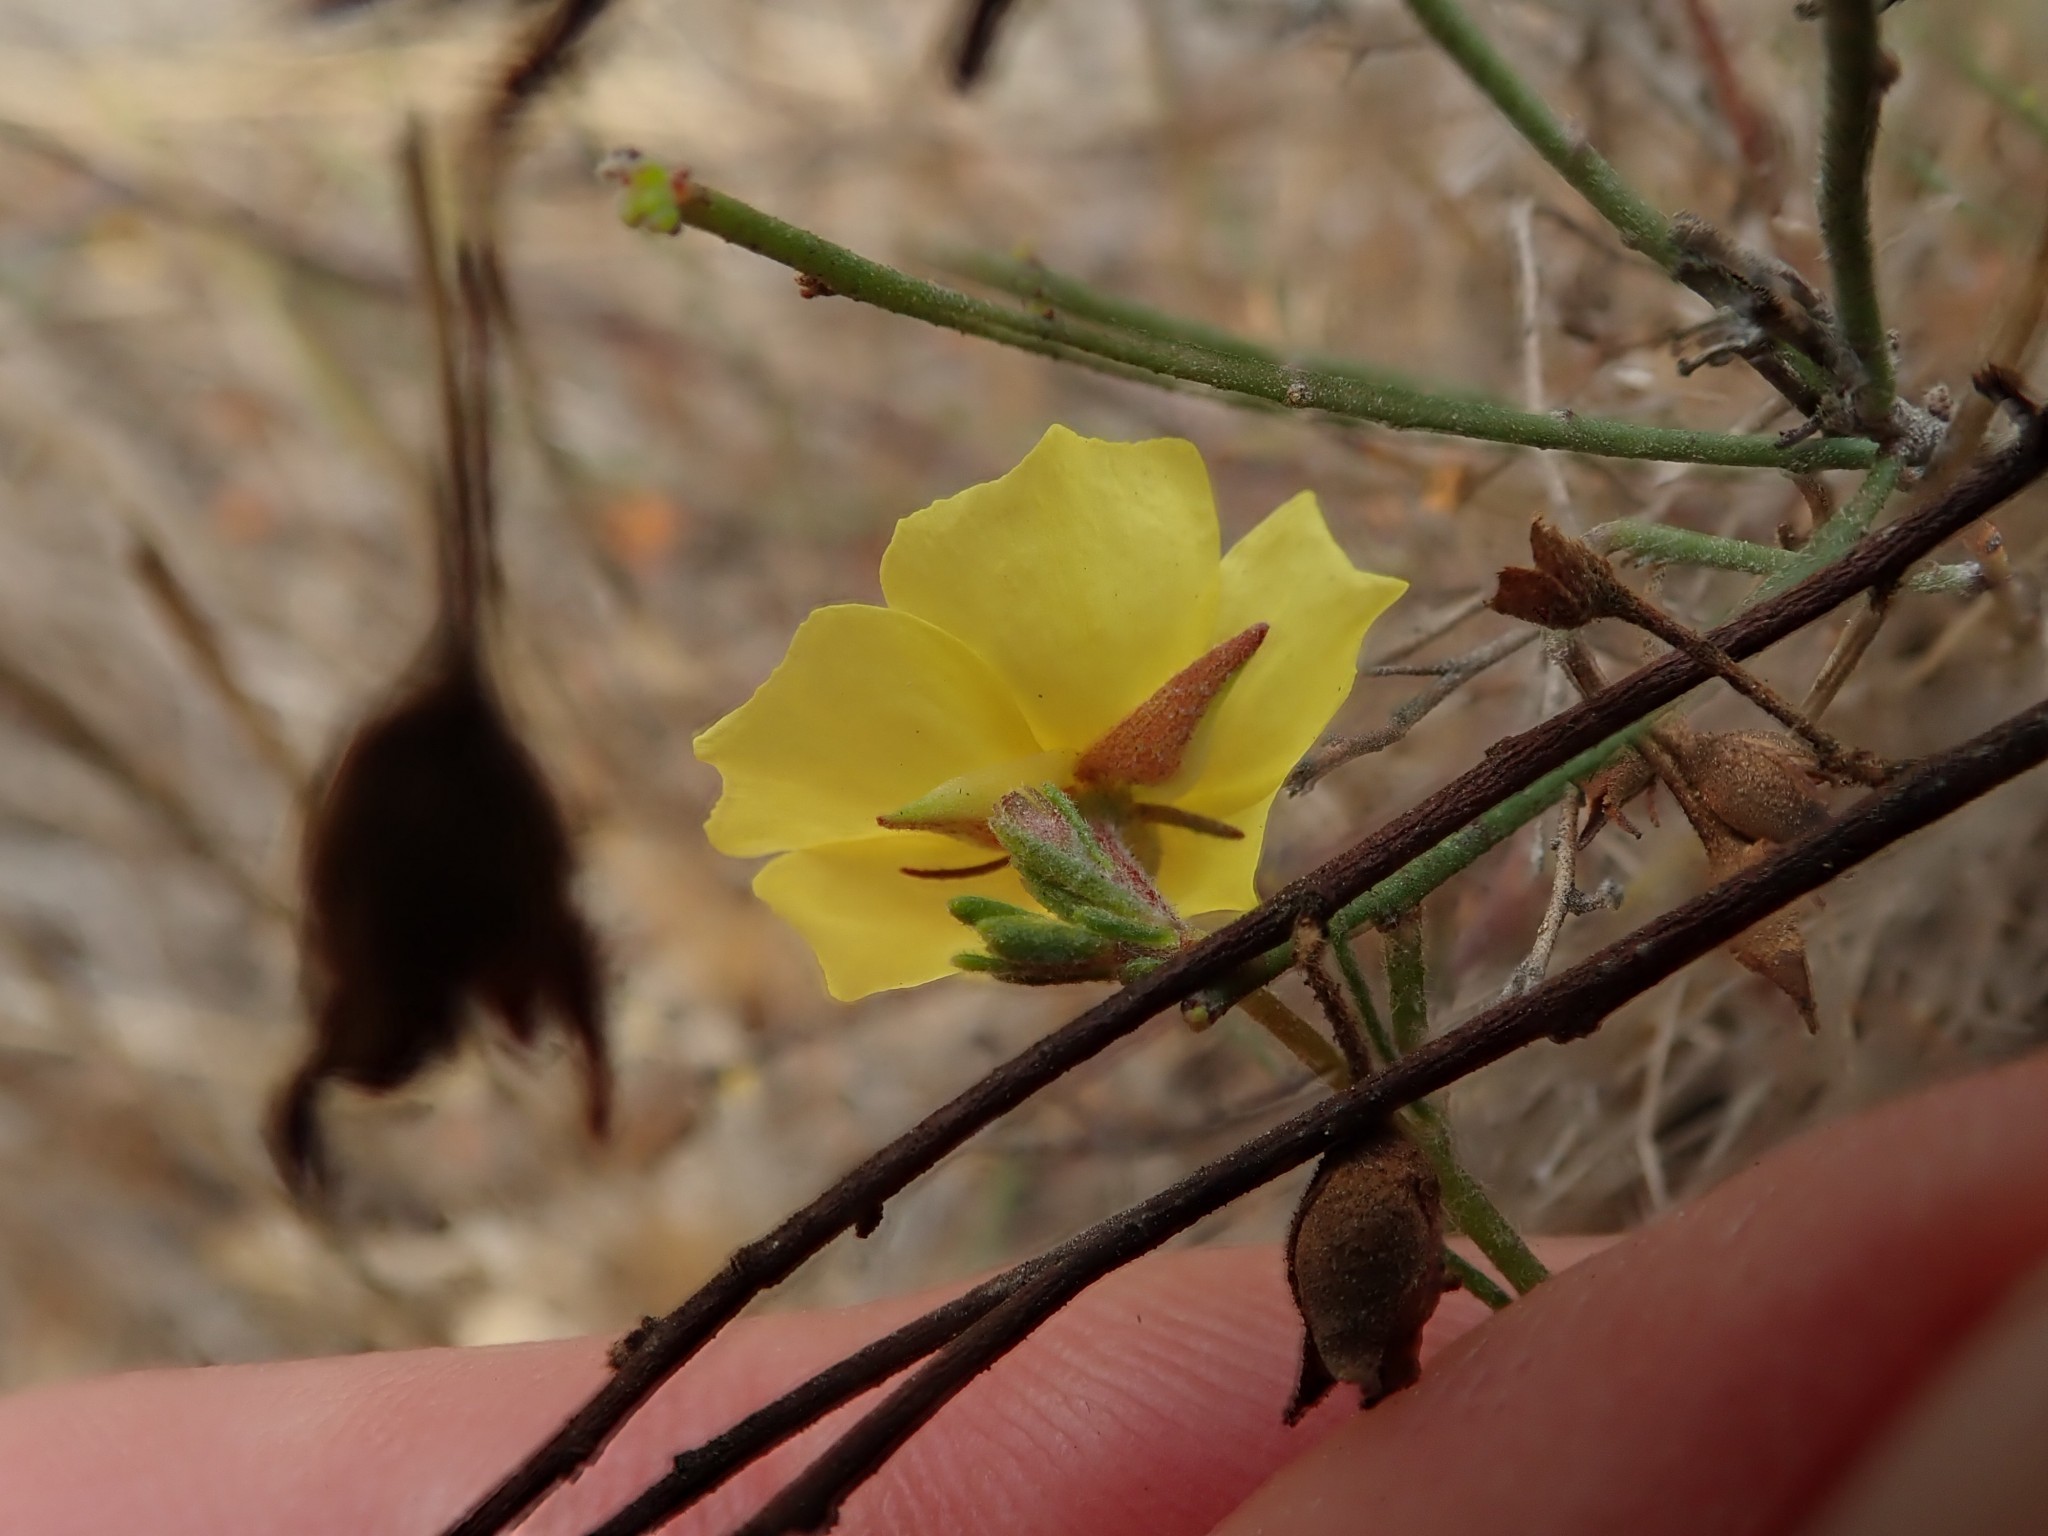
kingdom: Plantae
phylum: Tracheophyta
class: Magnoliopsida
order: Malvales
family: Cistaceae
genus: Crocanthemum
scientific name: Crocanthemum scoparium
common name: Broom-rose
